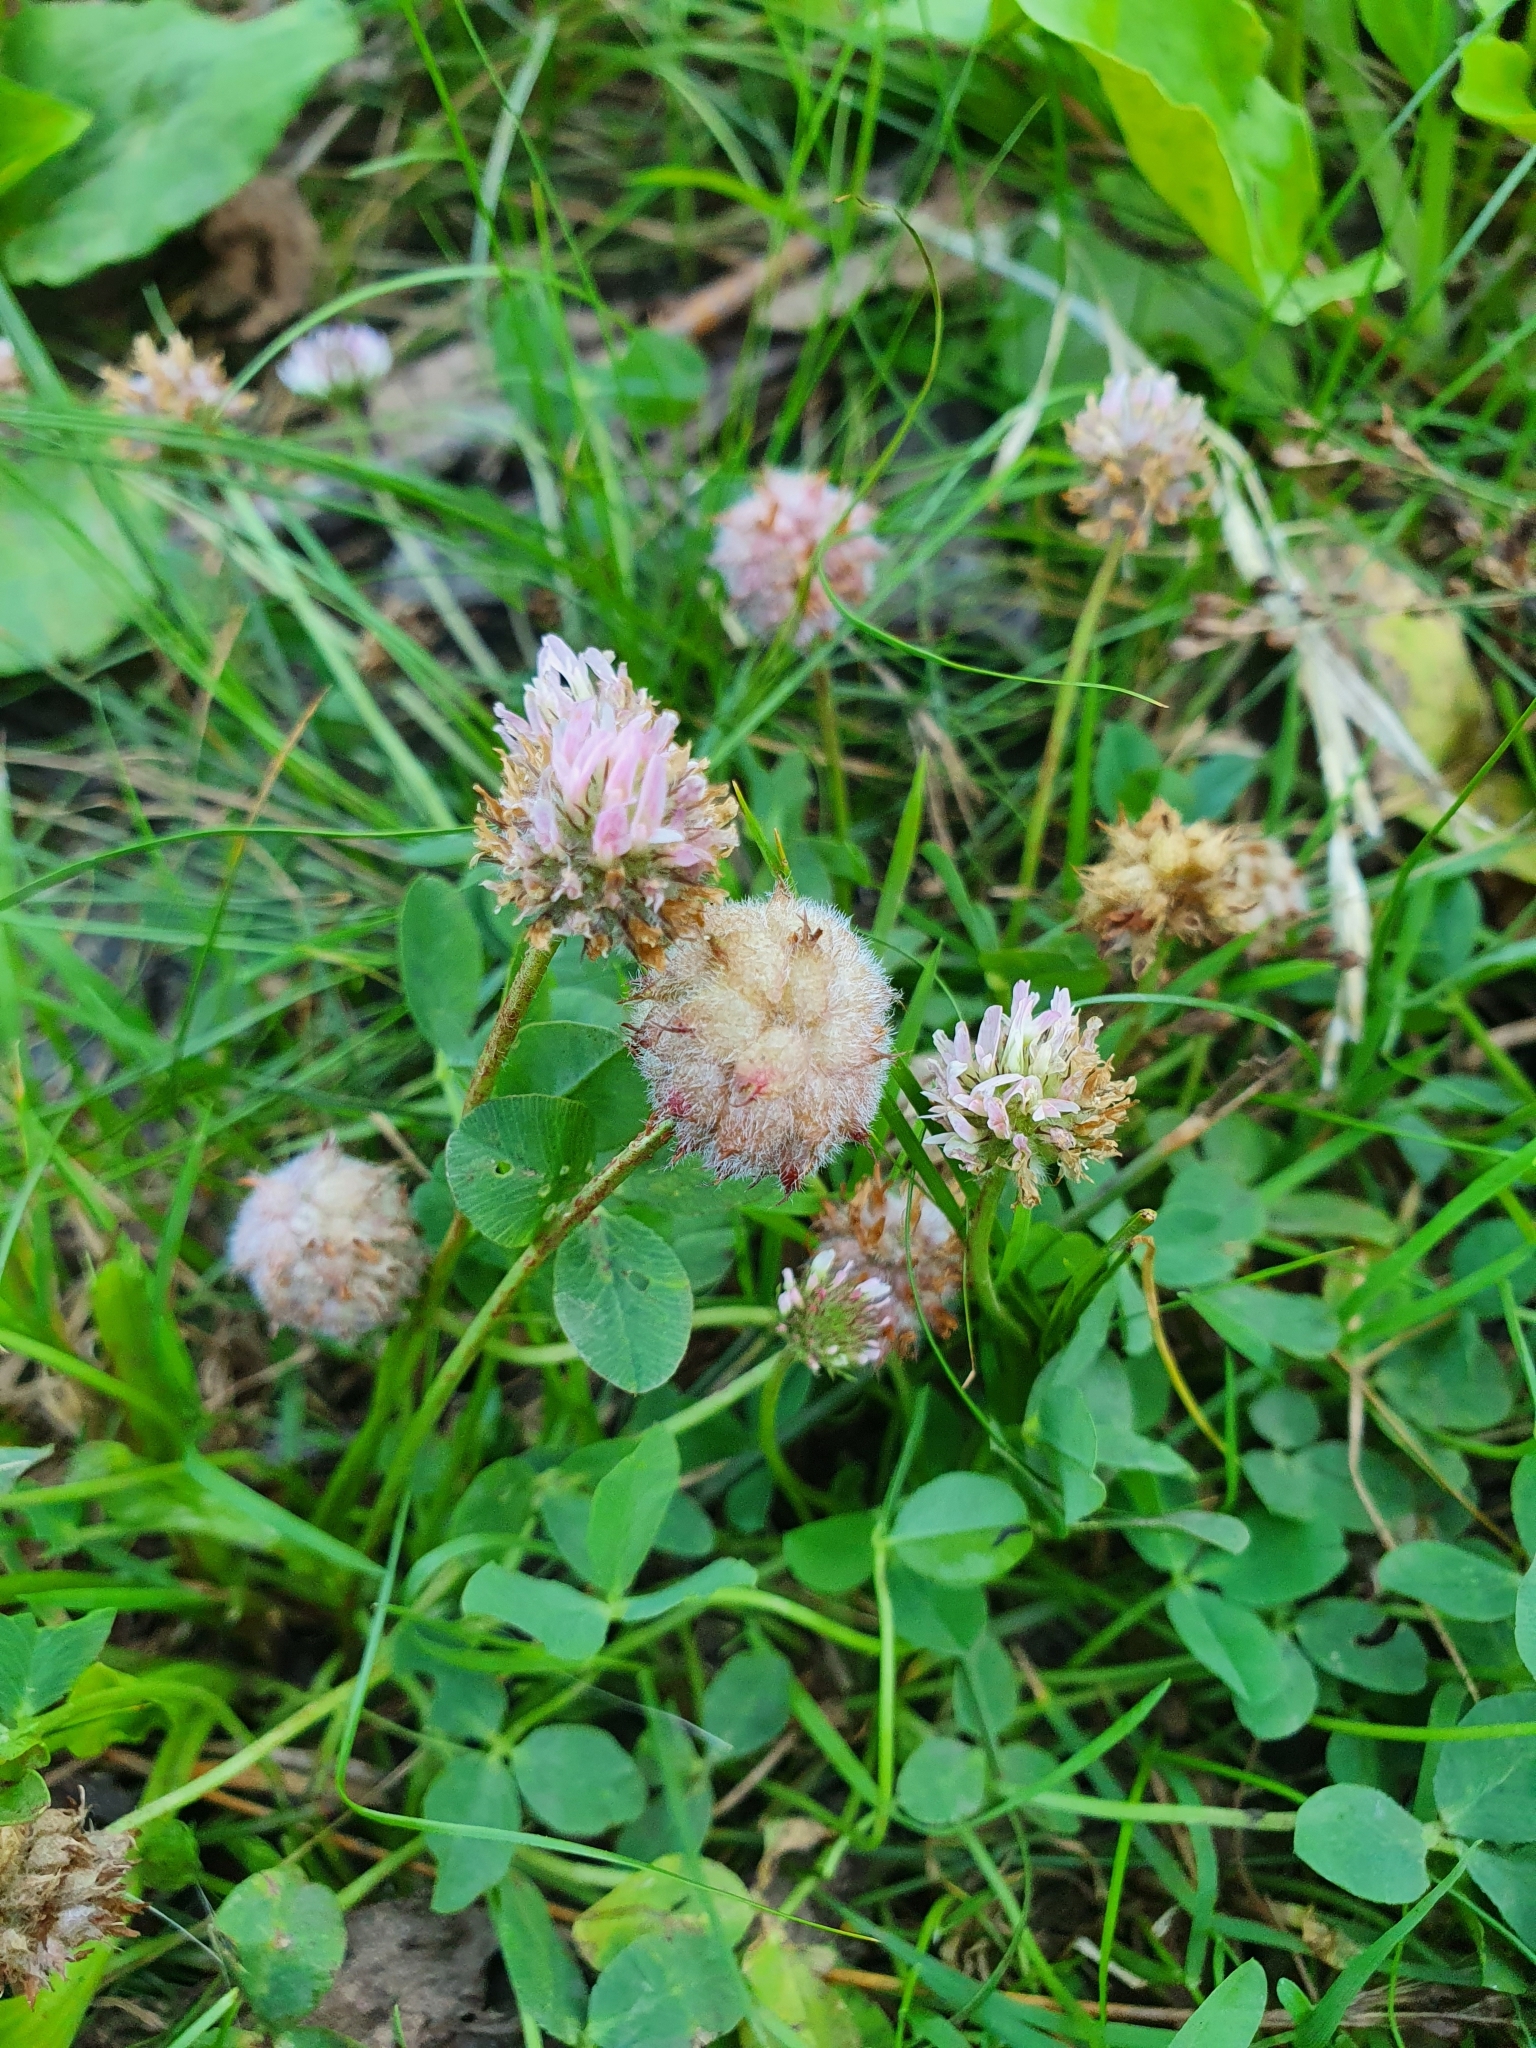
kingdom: Plantae
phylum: Tracheophyta
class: Magnoliopsida
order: Fabales
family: Fabaceae
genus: Trifolium
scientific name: Trifolium fragiferum
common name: Strawberry clover
